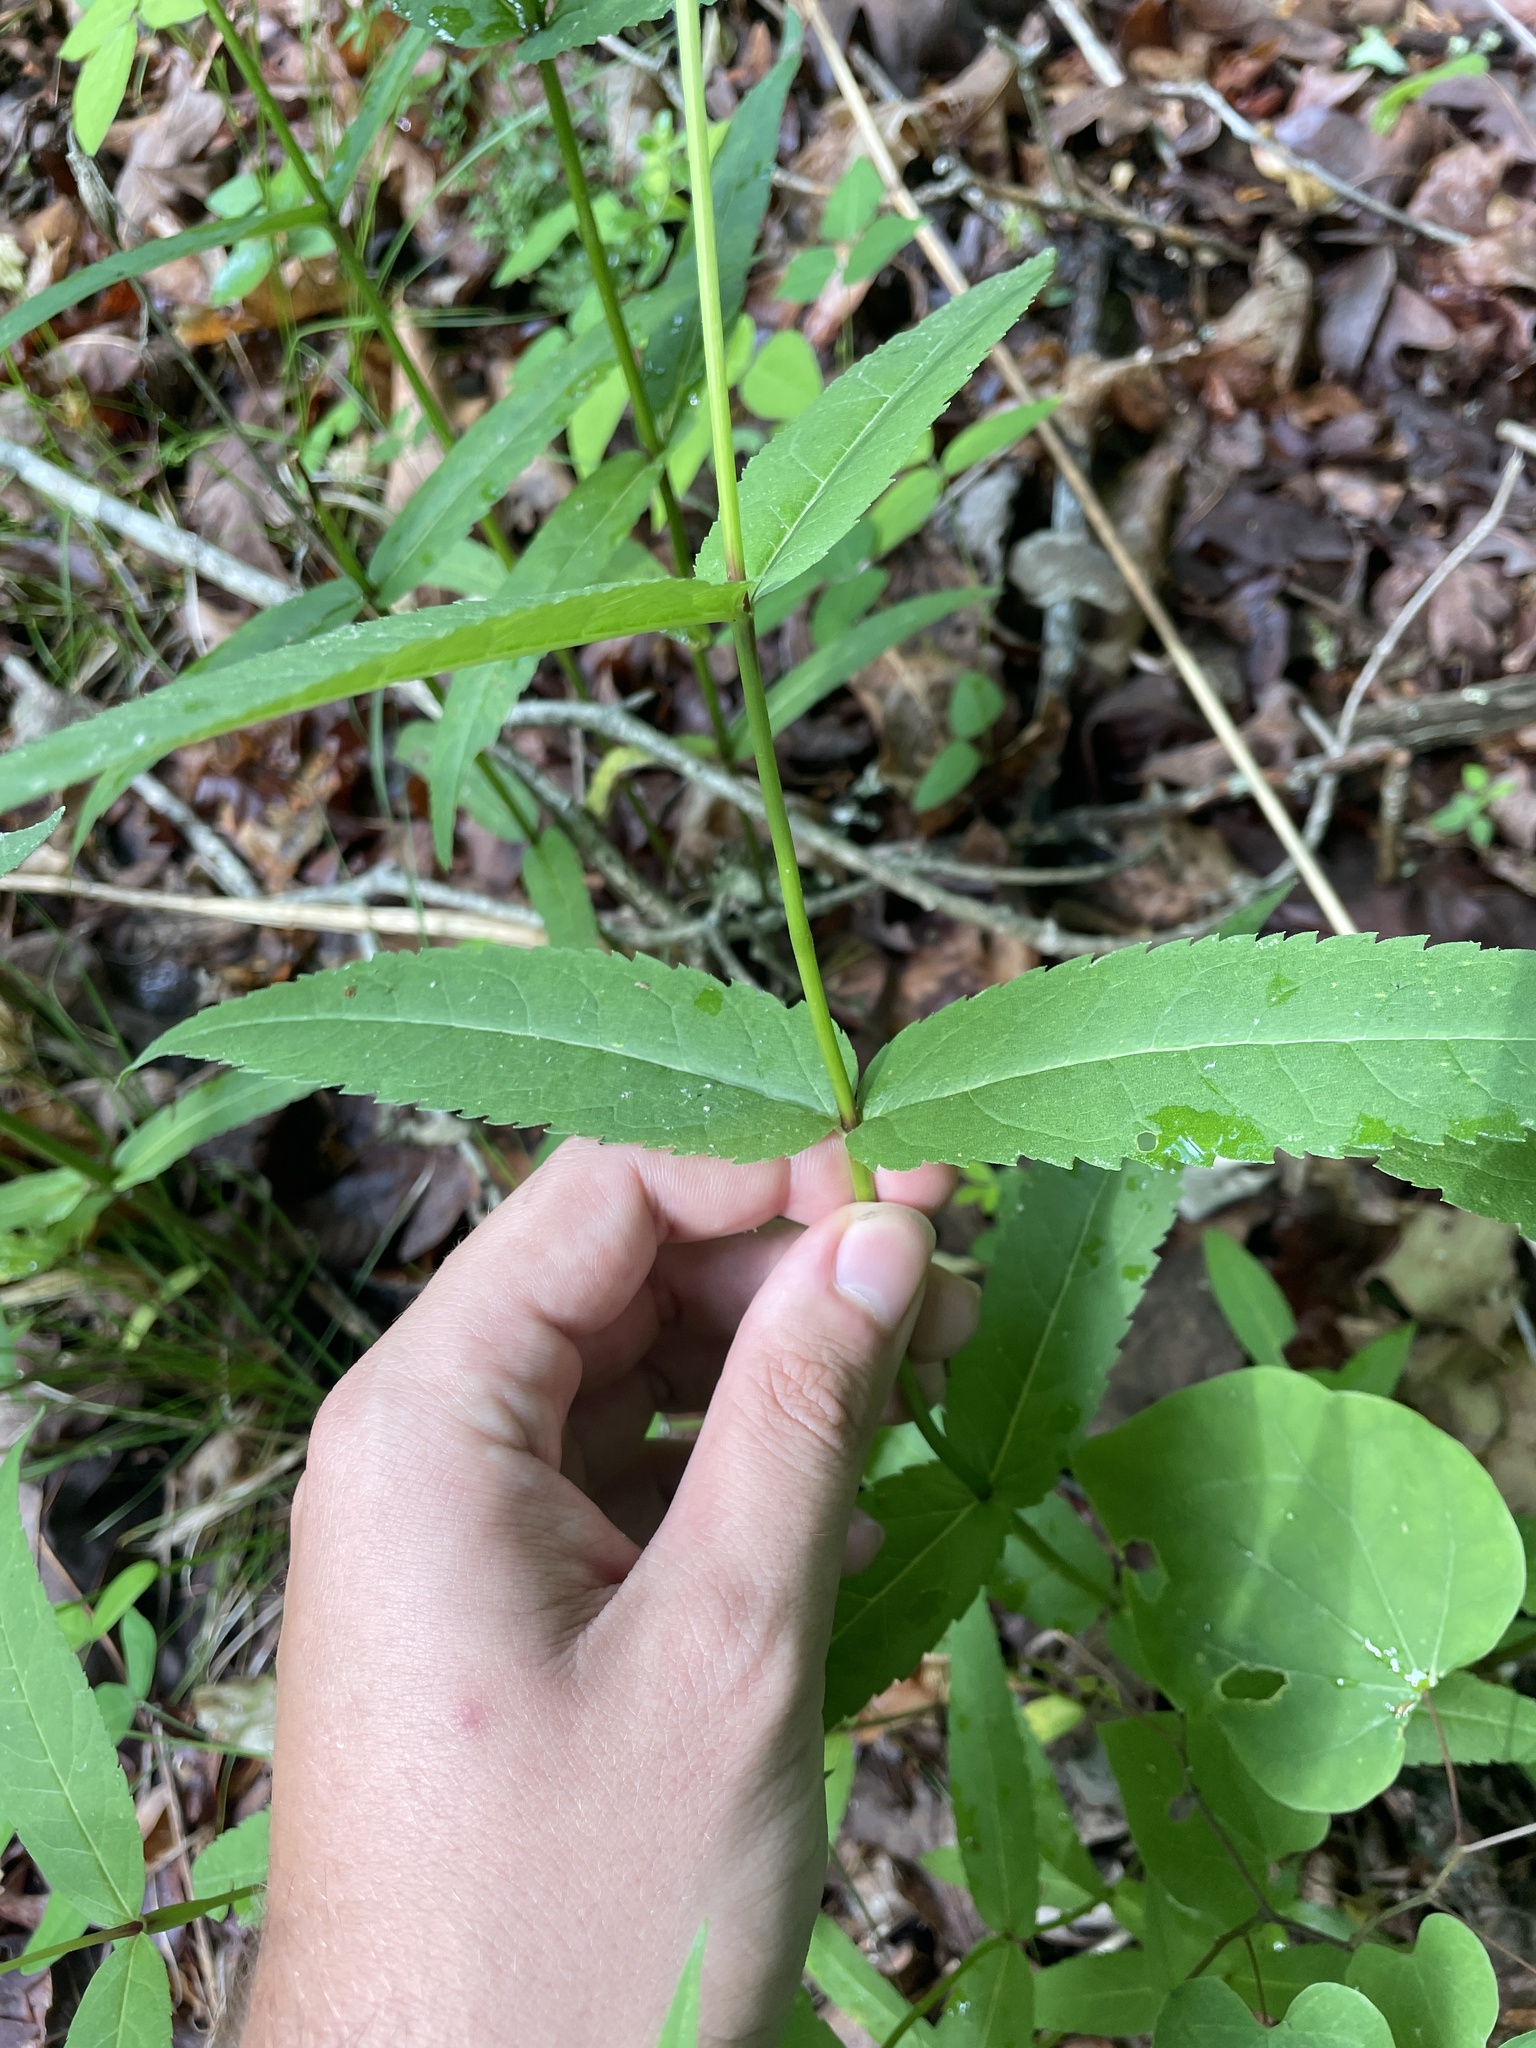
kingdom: Plantae
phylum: Tracheophyta
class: Magnoliopsida
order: Asterales
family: Asteraceae
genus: Eupatorium
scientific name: Eupatorium sessilifolium
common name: Upland boneset
